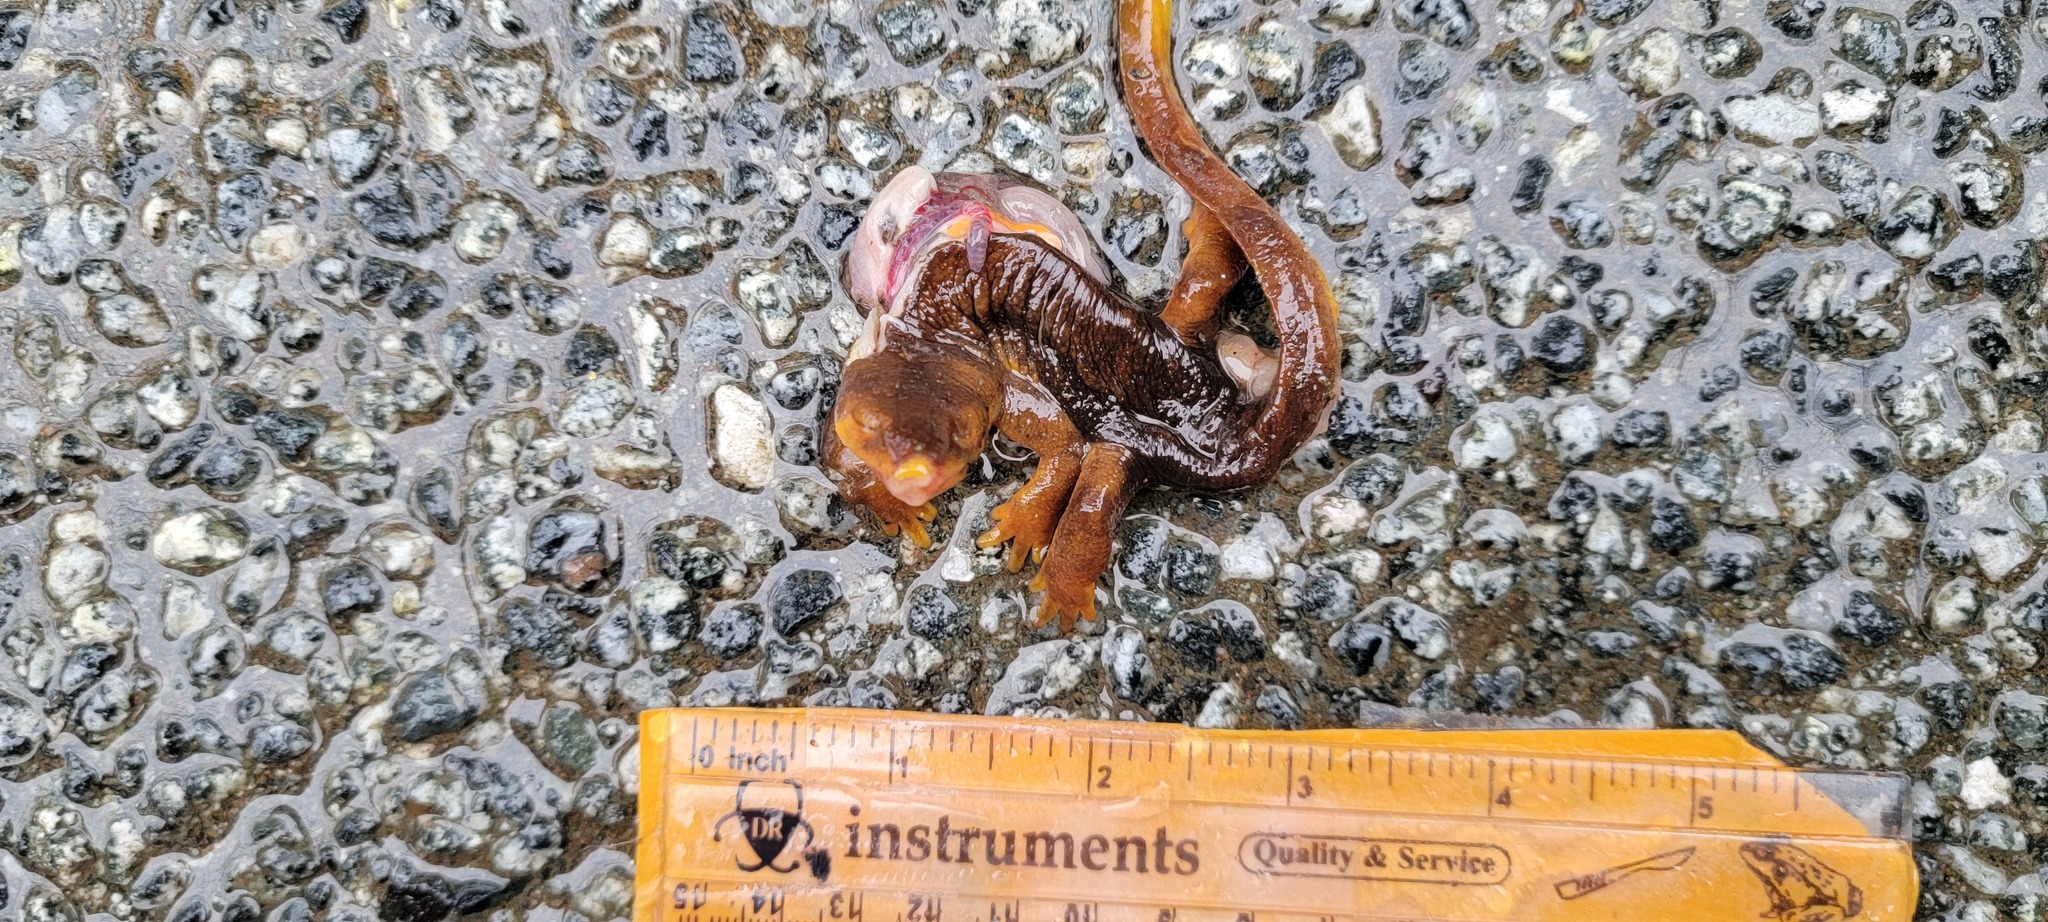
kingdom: Animalia
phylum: Chordata
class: Amphibia
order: Caudata
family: Salamandridae
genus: Taricha
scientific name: Taricha
